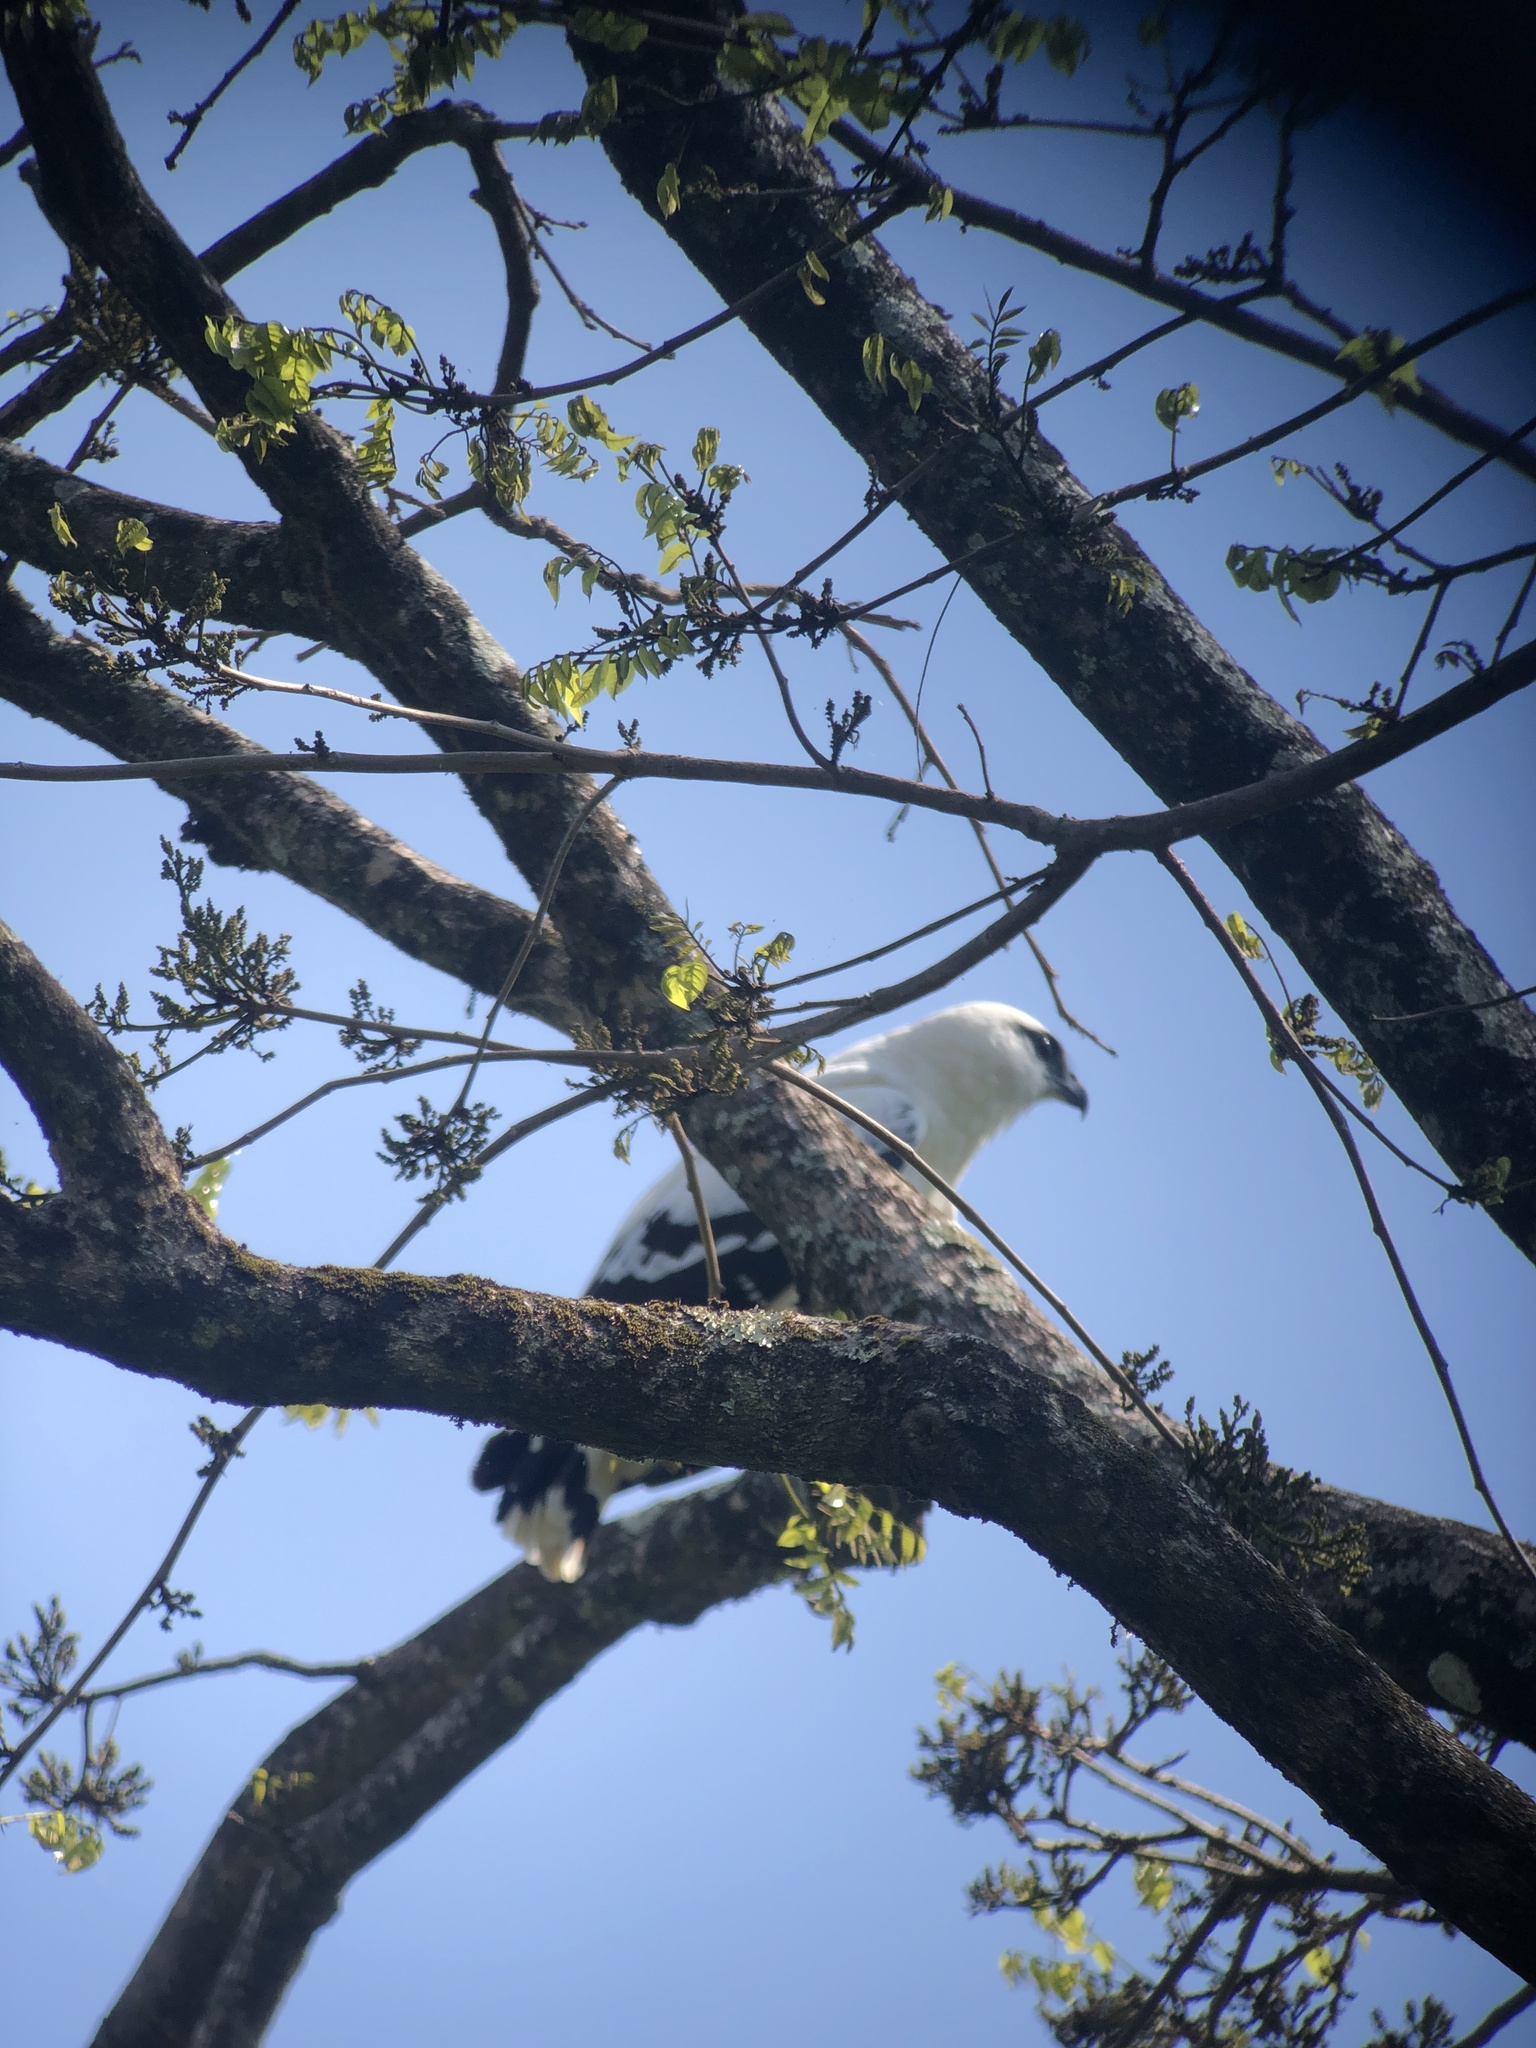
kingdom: Animalia
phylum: Chordata
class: Aves
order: Accipitriformes
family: Accipitridae
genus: Leucopternis
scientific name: Leucopternis albicollis
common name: White hawk
